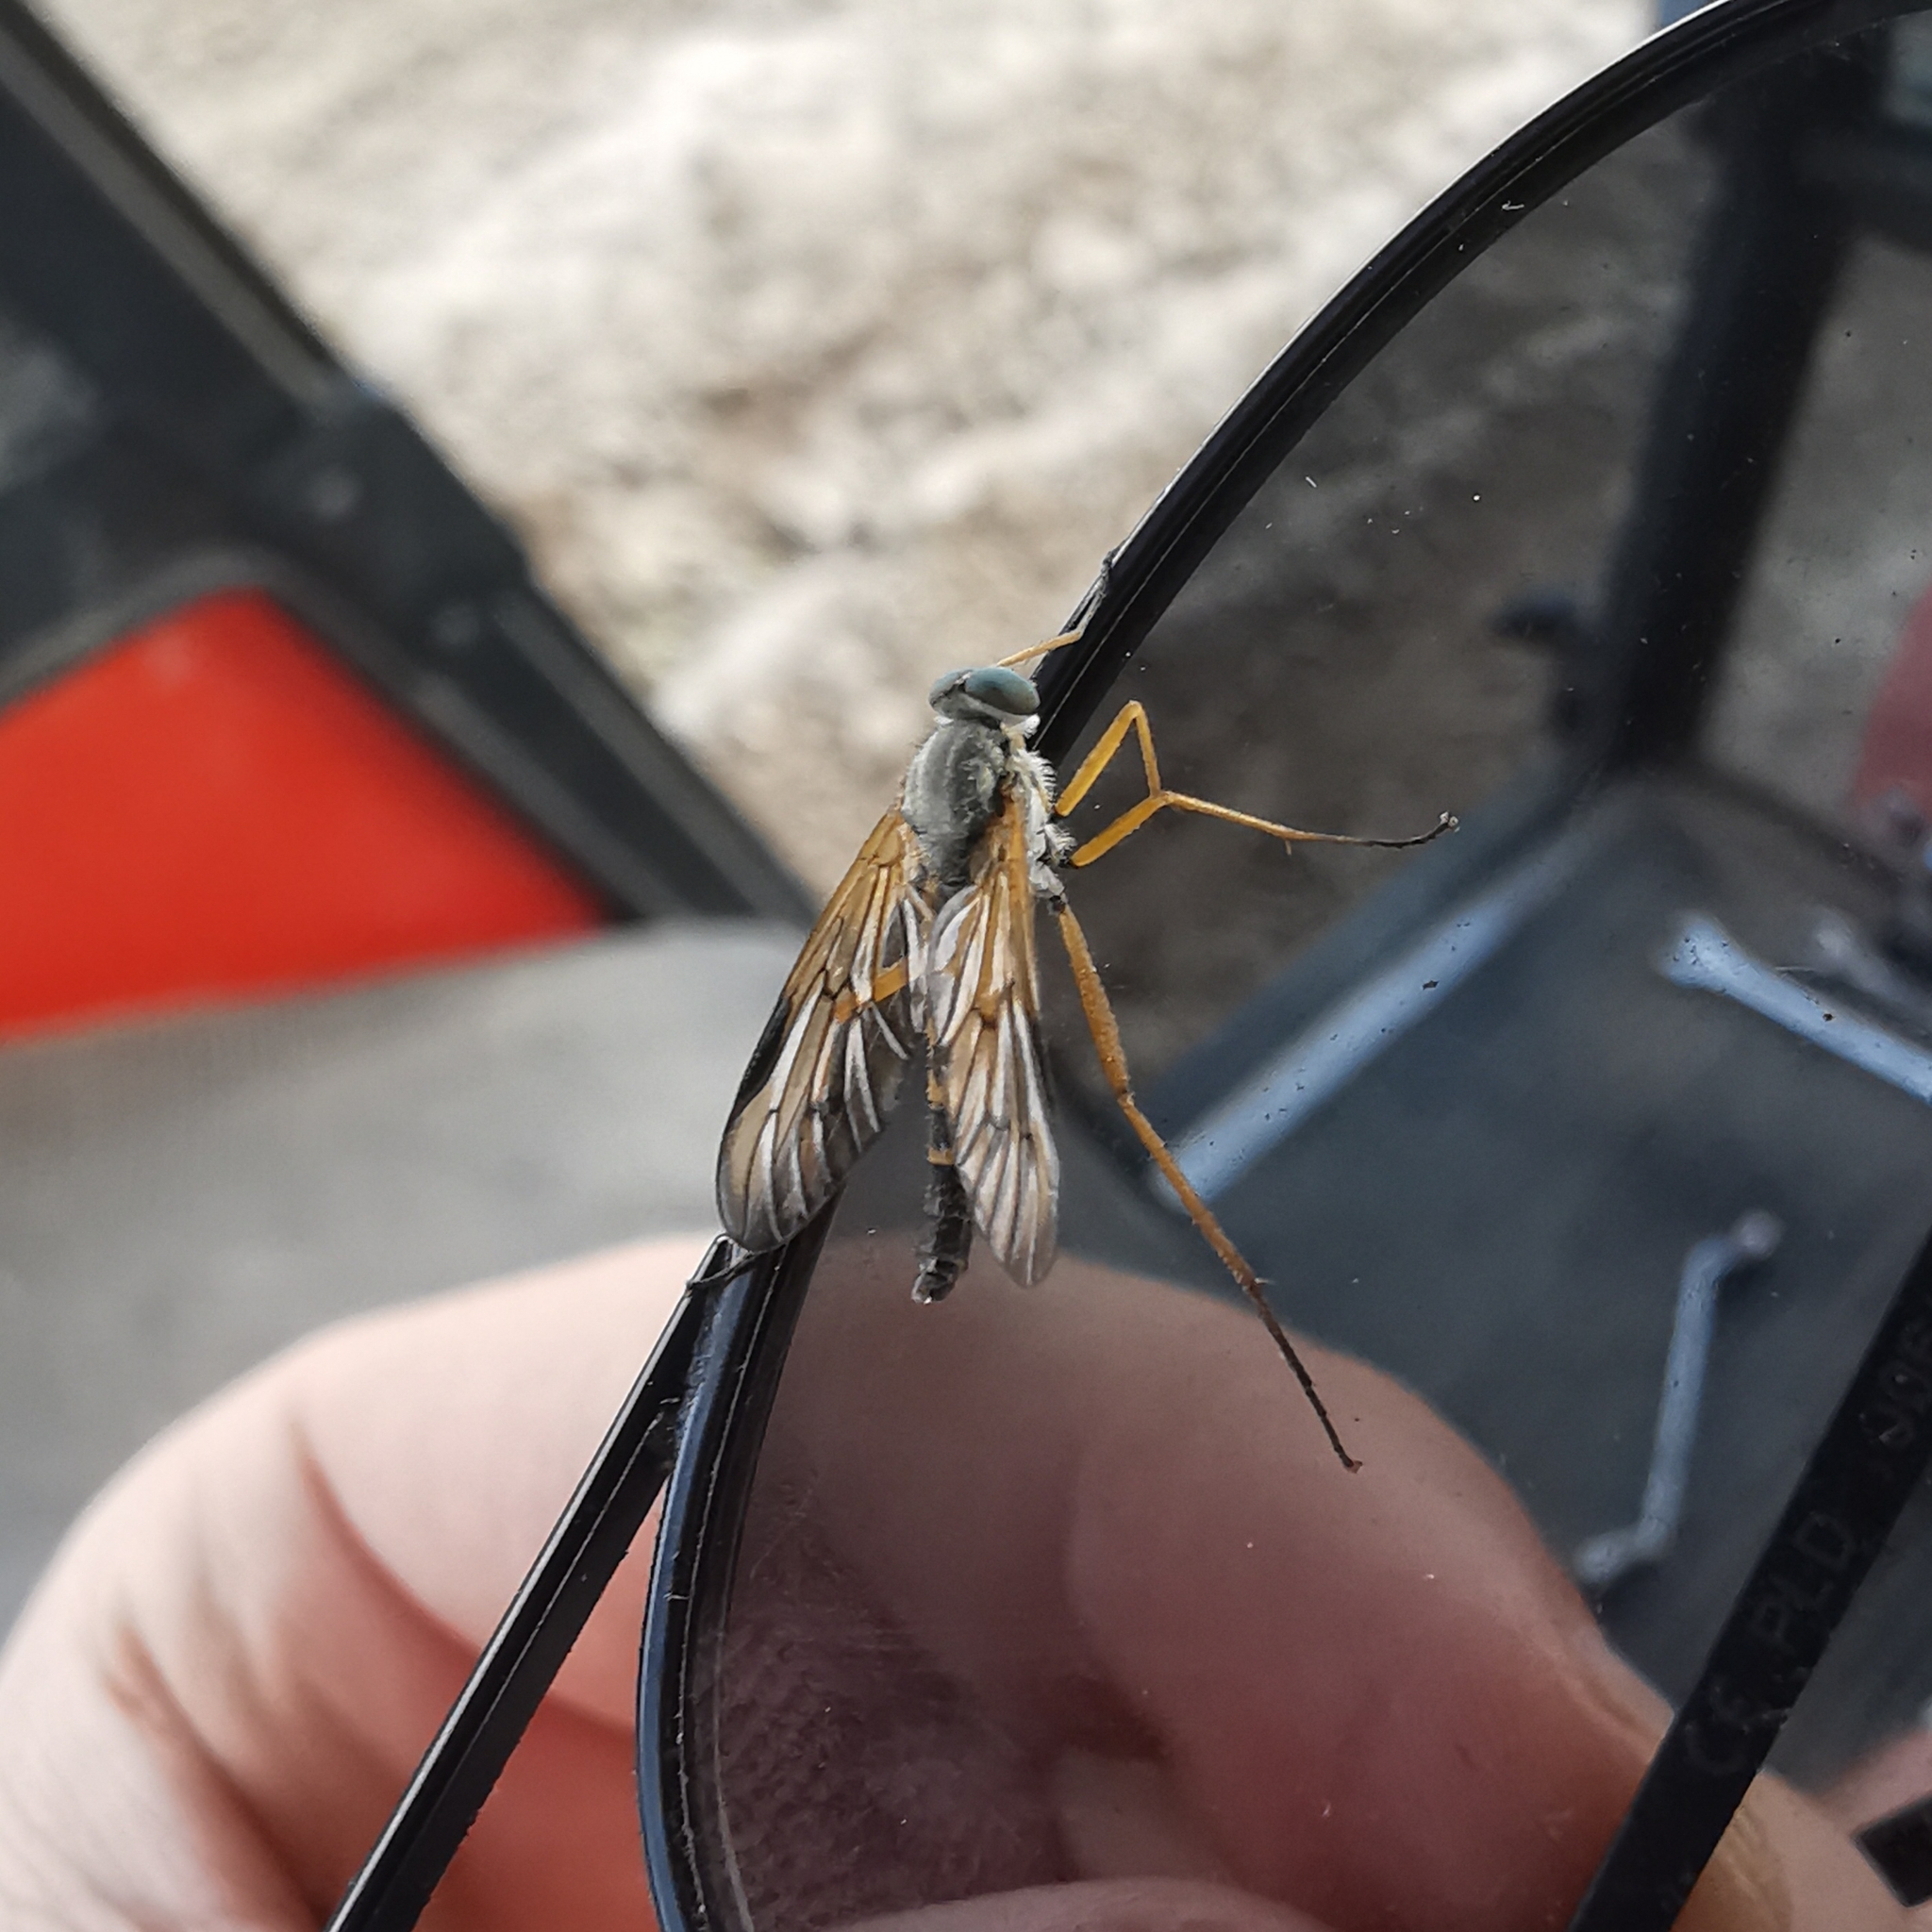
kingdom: Animalia
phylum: Arthropoda
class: Insecta
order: Diptera
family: Rhagionidae
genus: Rhagio
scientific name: Rhagio vitripennis
